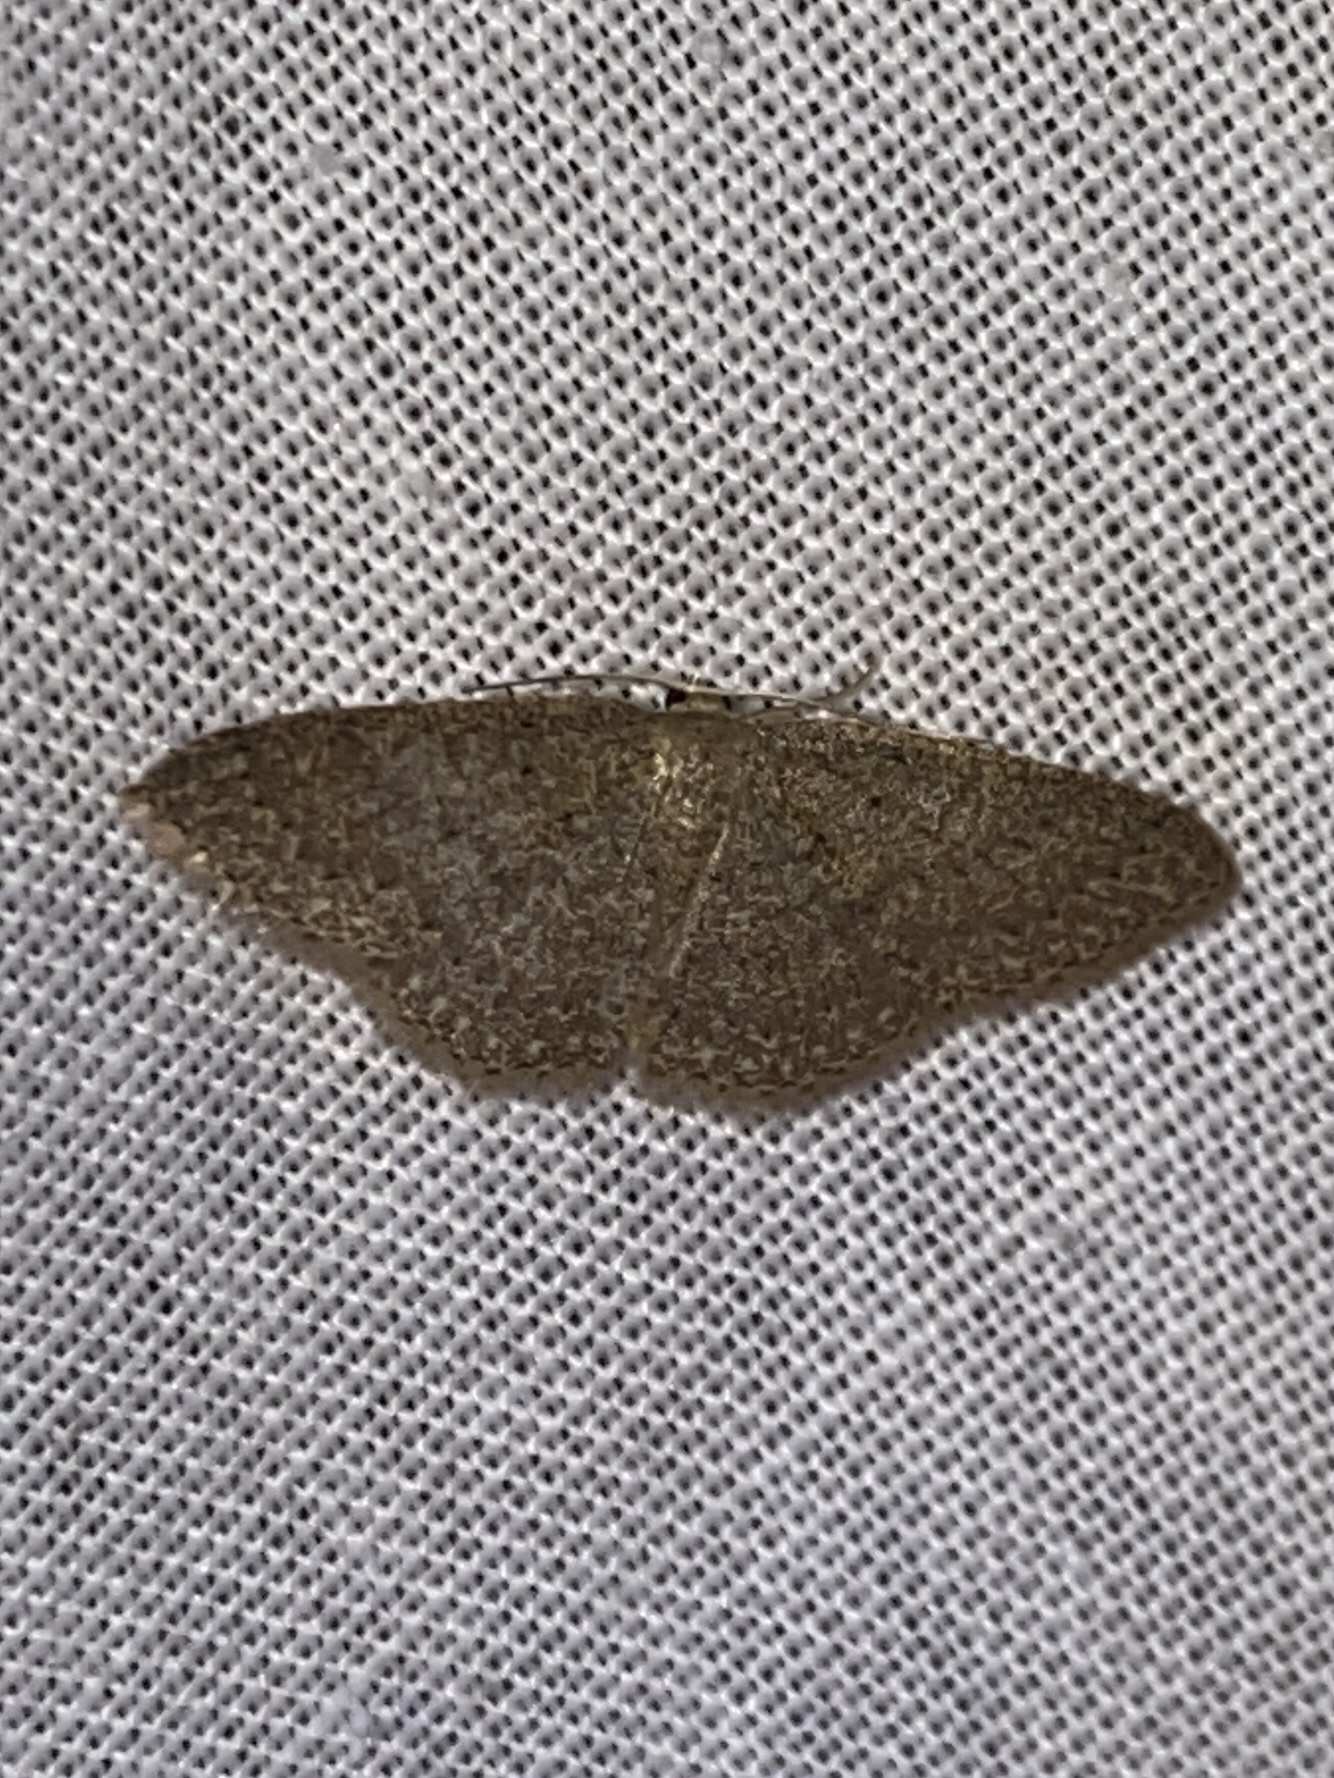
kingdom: Animalia
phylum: Arthropoda
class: Insecta
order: Lepidoptera
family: Geometridae
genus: Pleuroprucha
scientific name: Pleuroprucha insulsaria
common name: Common tan wave
